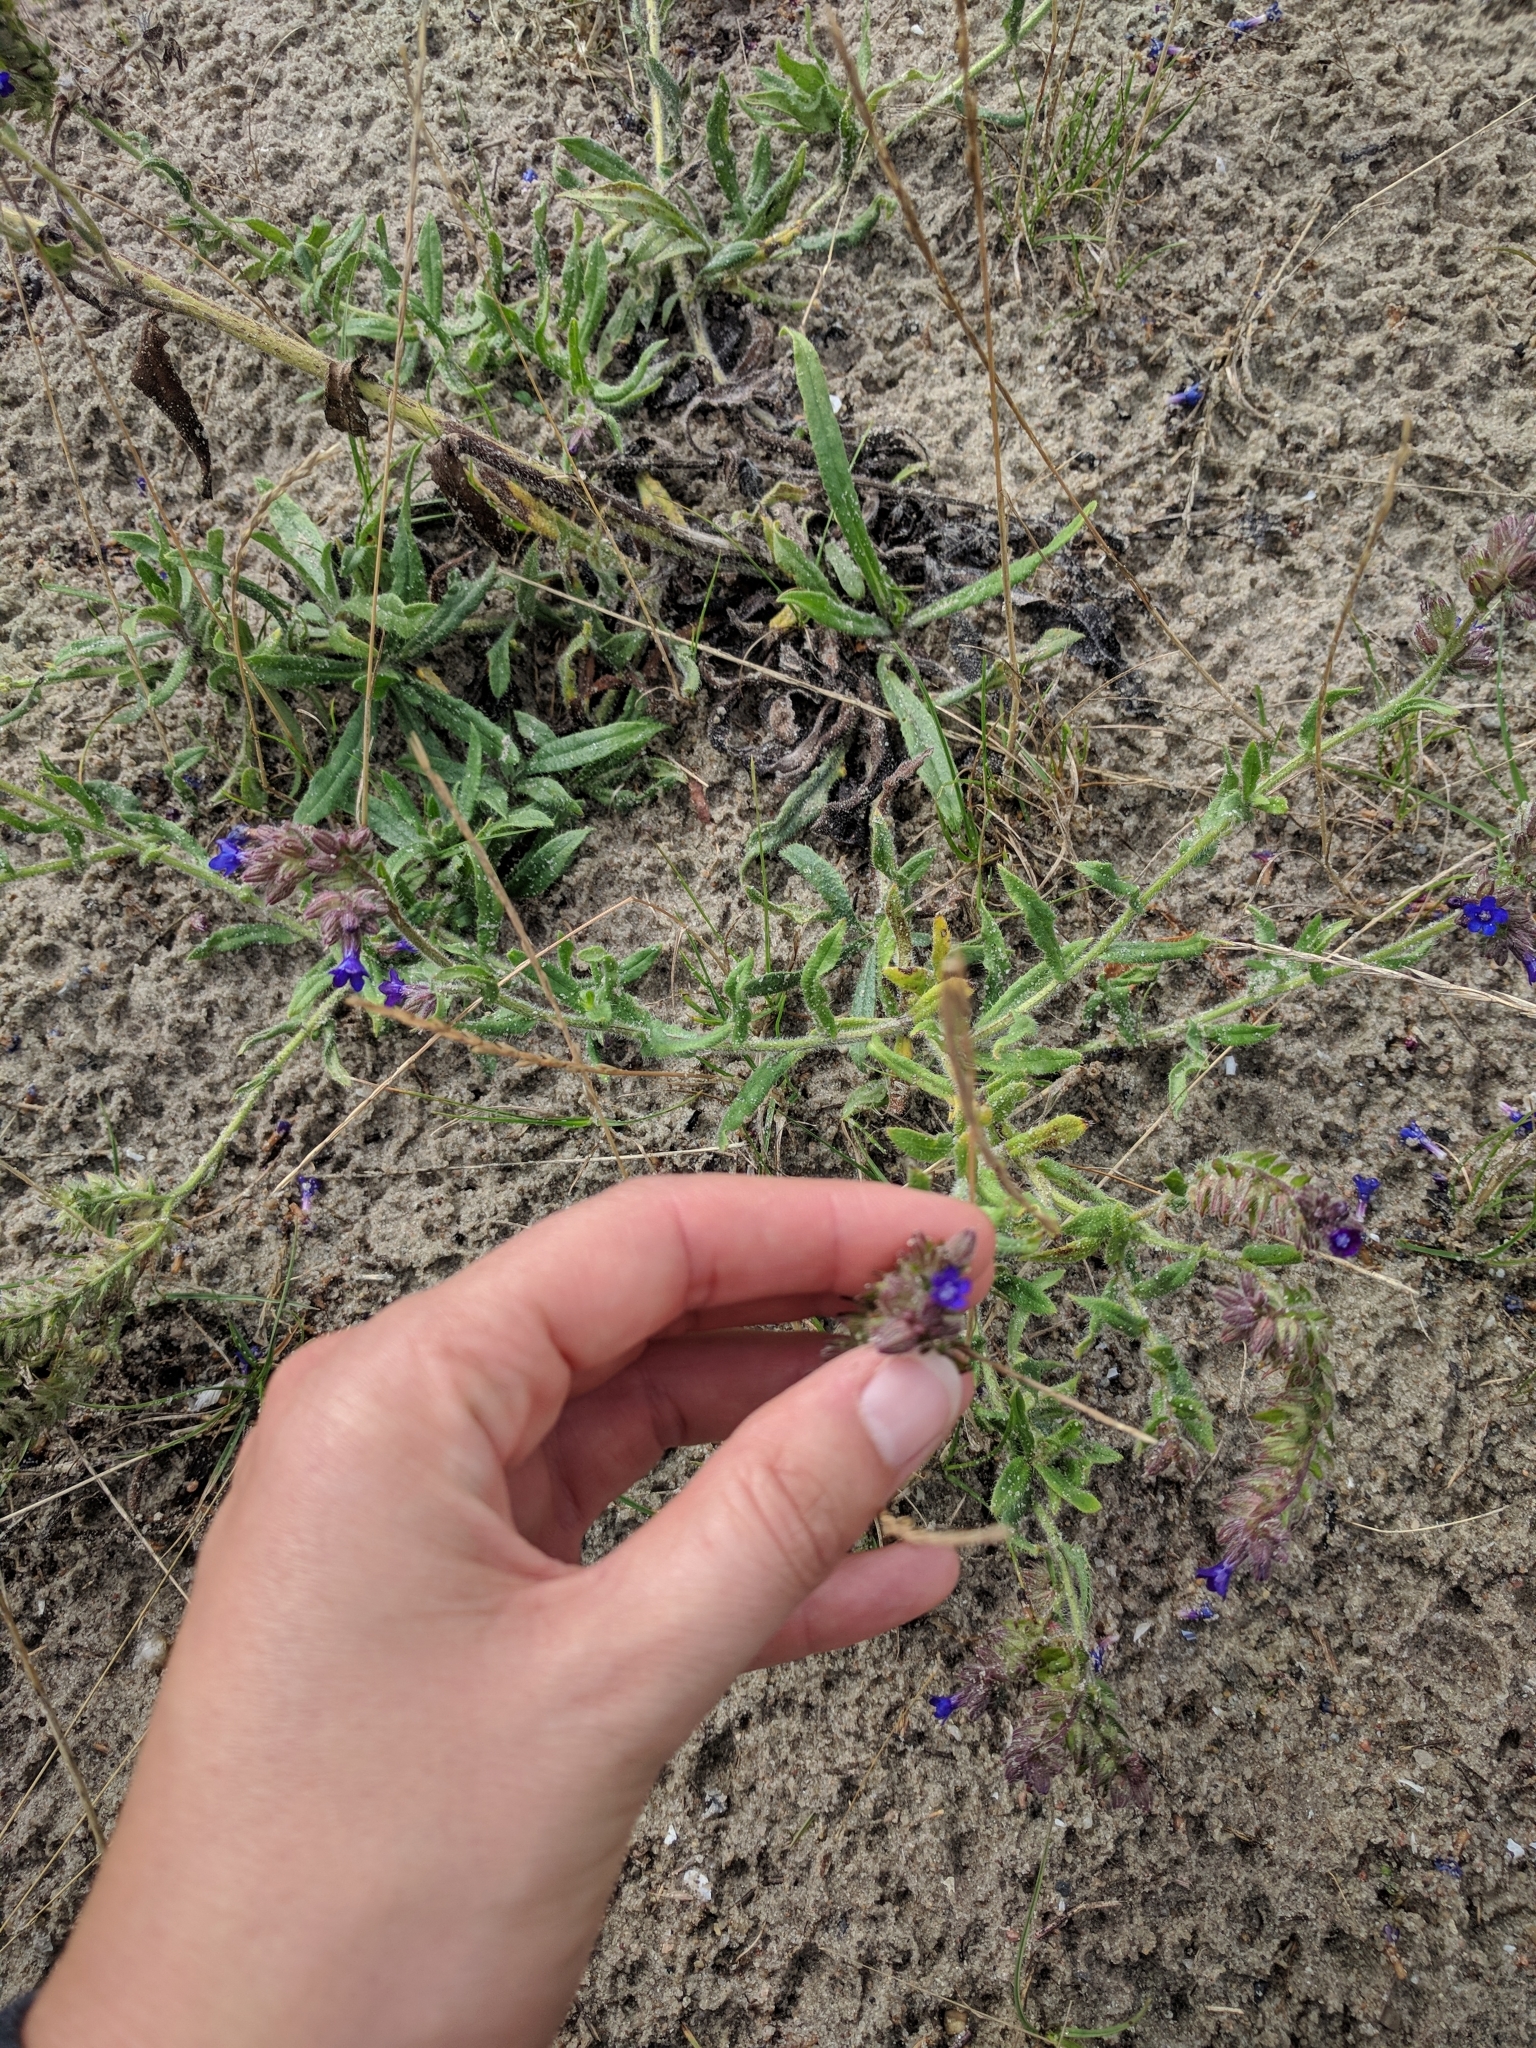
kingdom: Plantae
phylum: Tracheophyta
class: Magnoliopsida
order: Boraginales
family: Boraginaceae
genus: Anchusa
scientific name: Anchusa officinalis
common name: Alkanet
